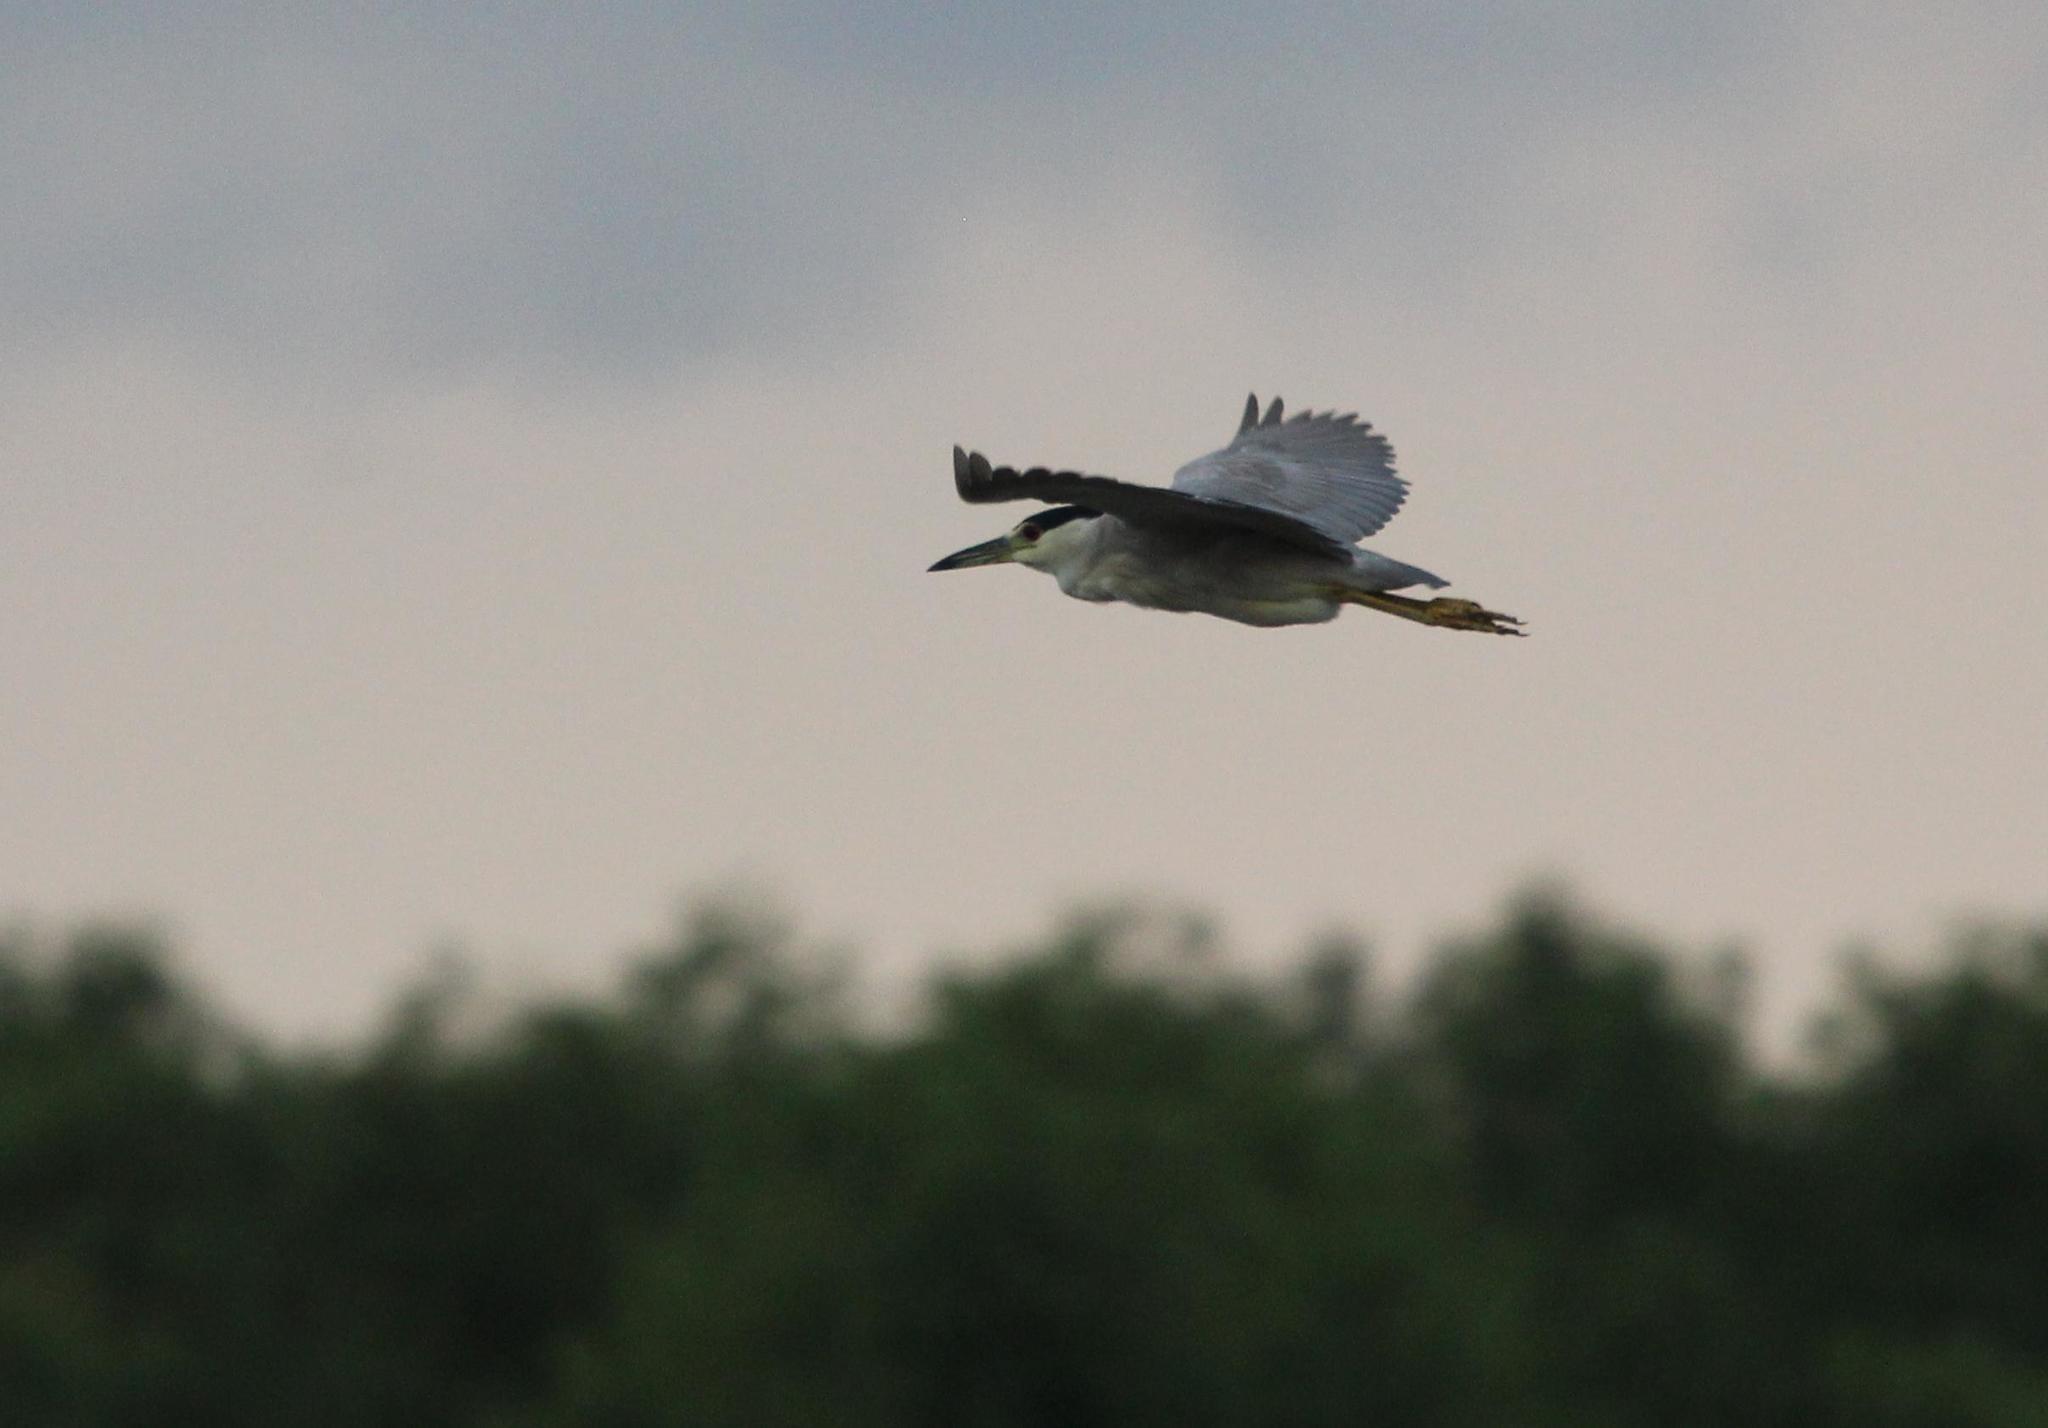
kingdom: Animalia
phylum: Chordata
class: Aves
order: Pelecaniformes
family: Ardeidae
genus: Nycticorax
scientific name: Nycticorax nycticorax
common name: Black-crowned night heron
